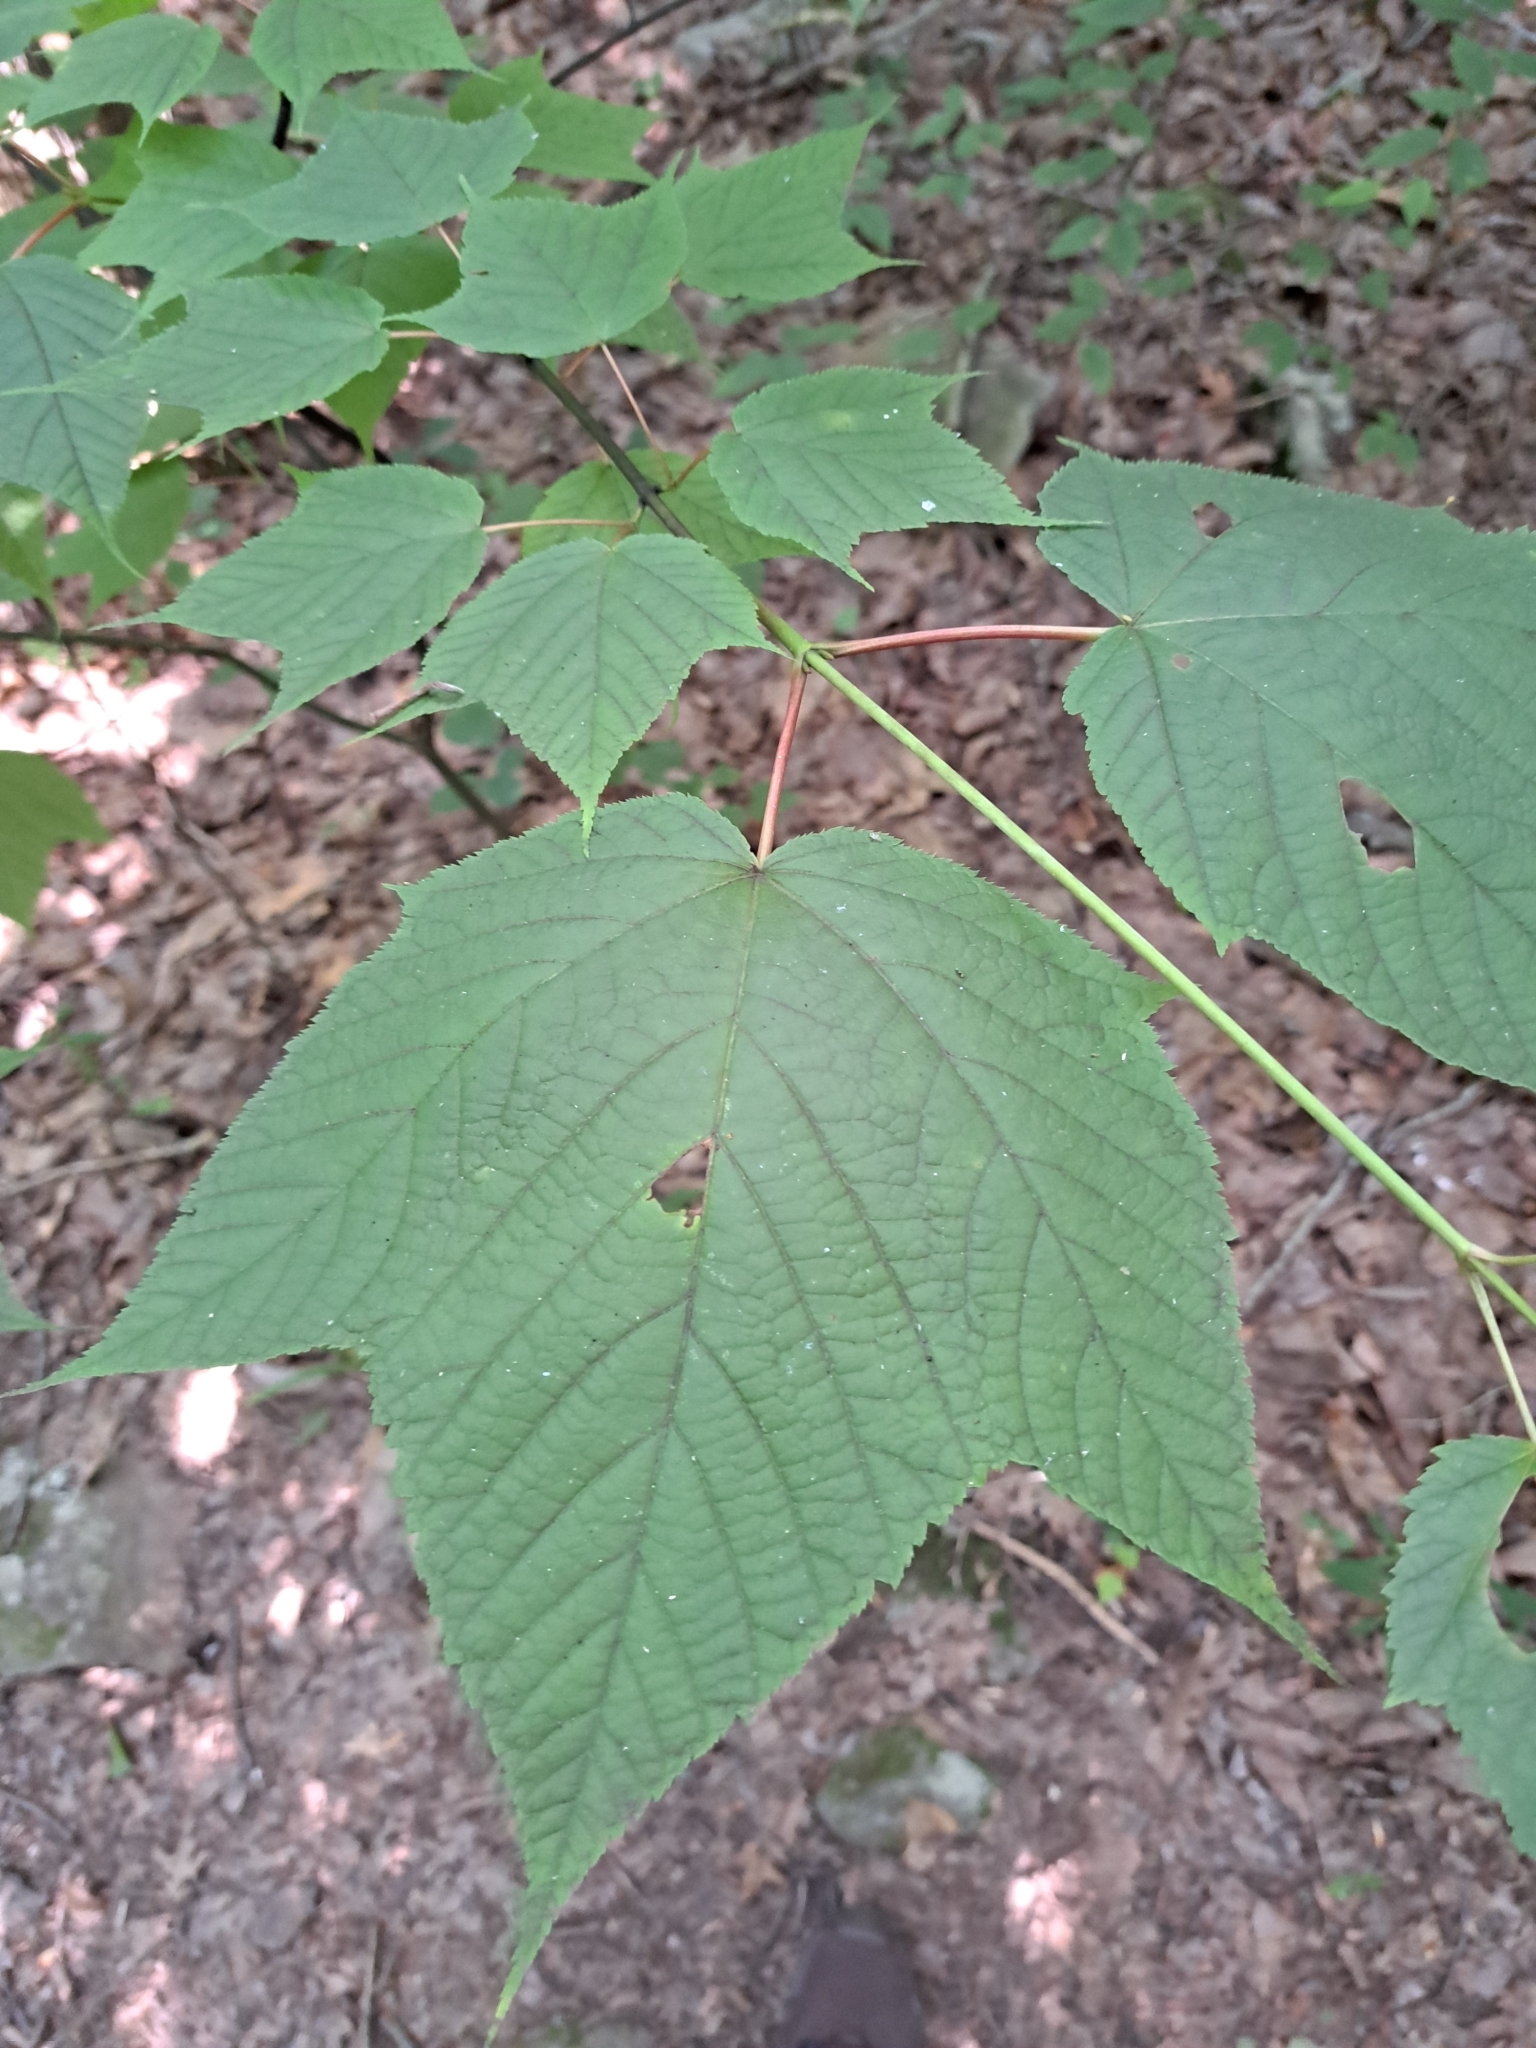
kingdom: Plantae
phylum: Tracheophyta
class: Magnoliopsida
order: Sapindales
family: Sapindaceae
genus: Acer
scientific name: Acer pensylvanicum
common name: Moosewood
